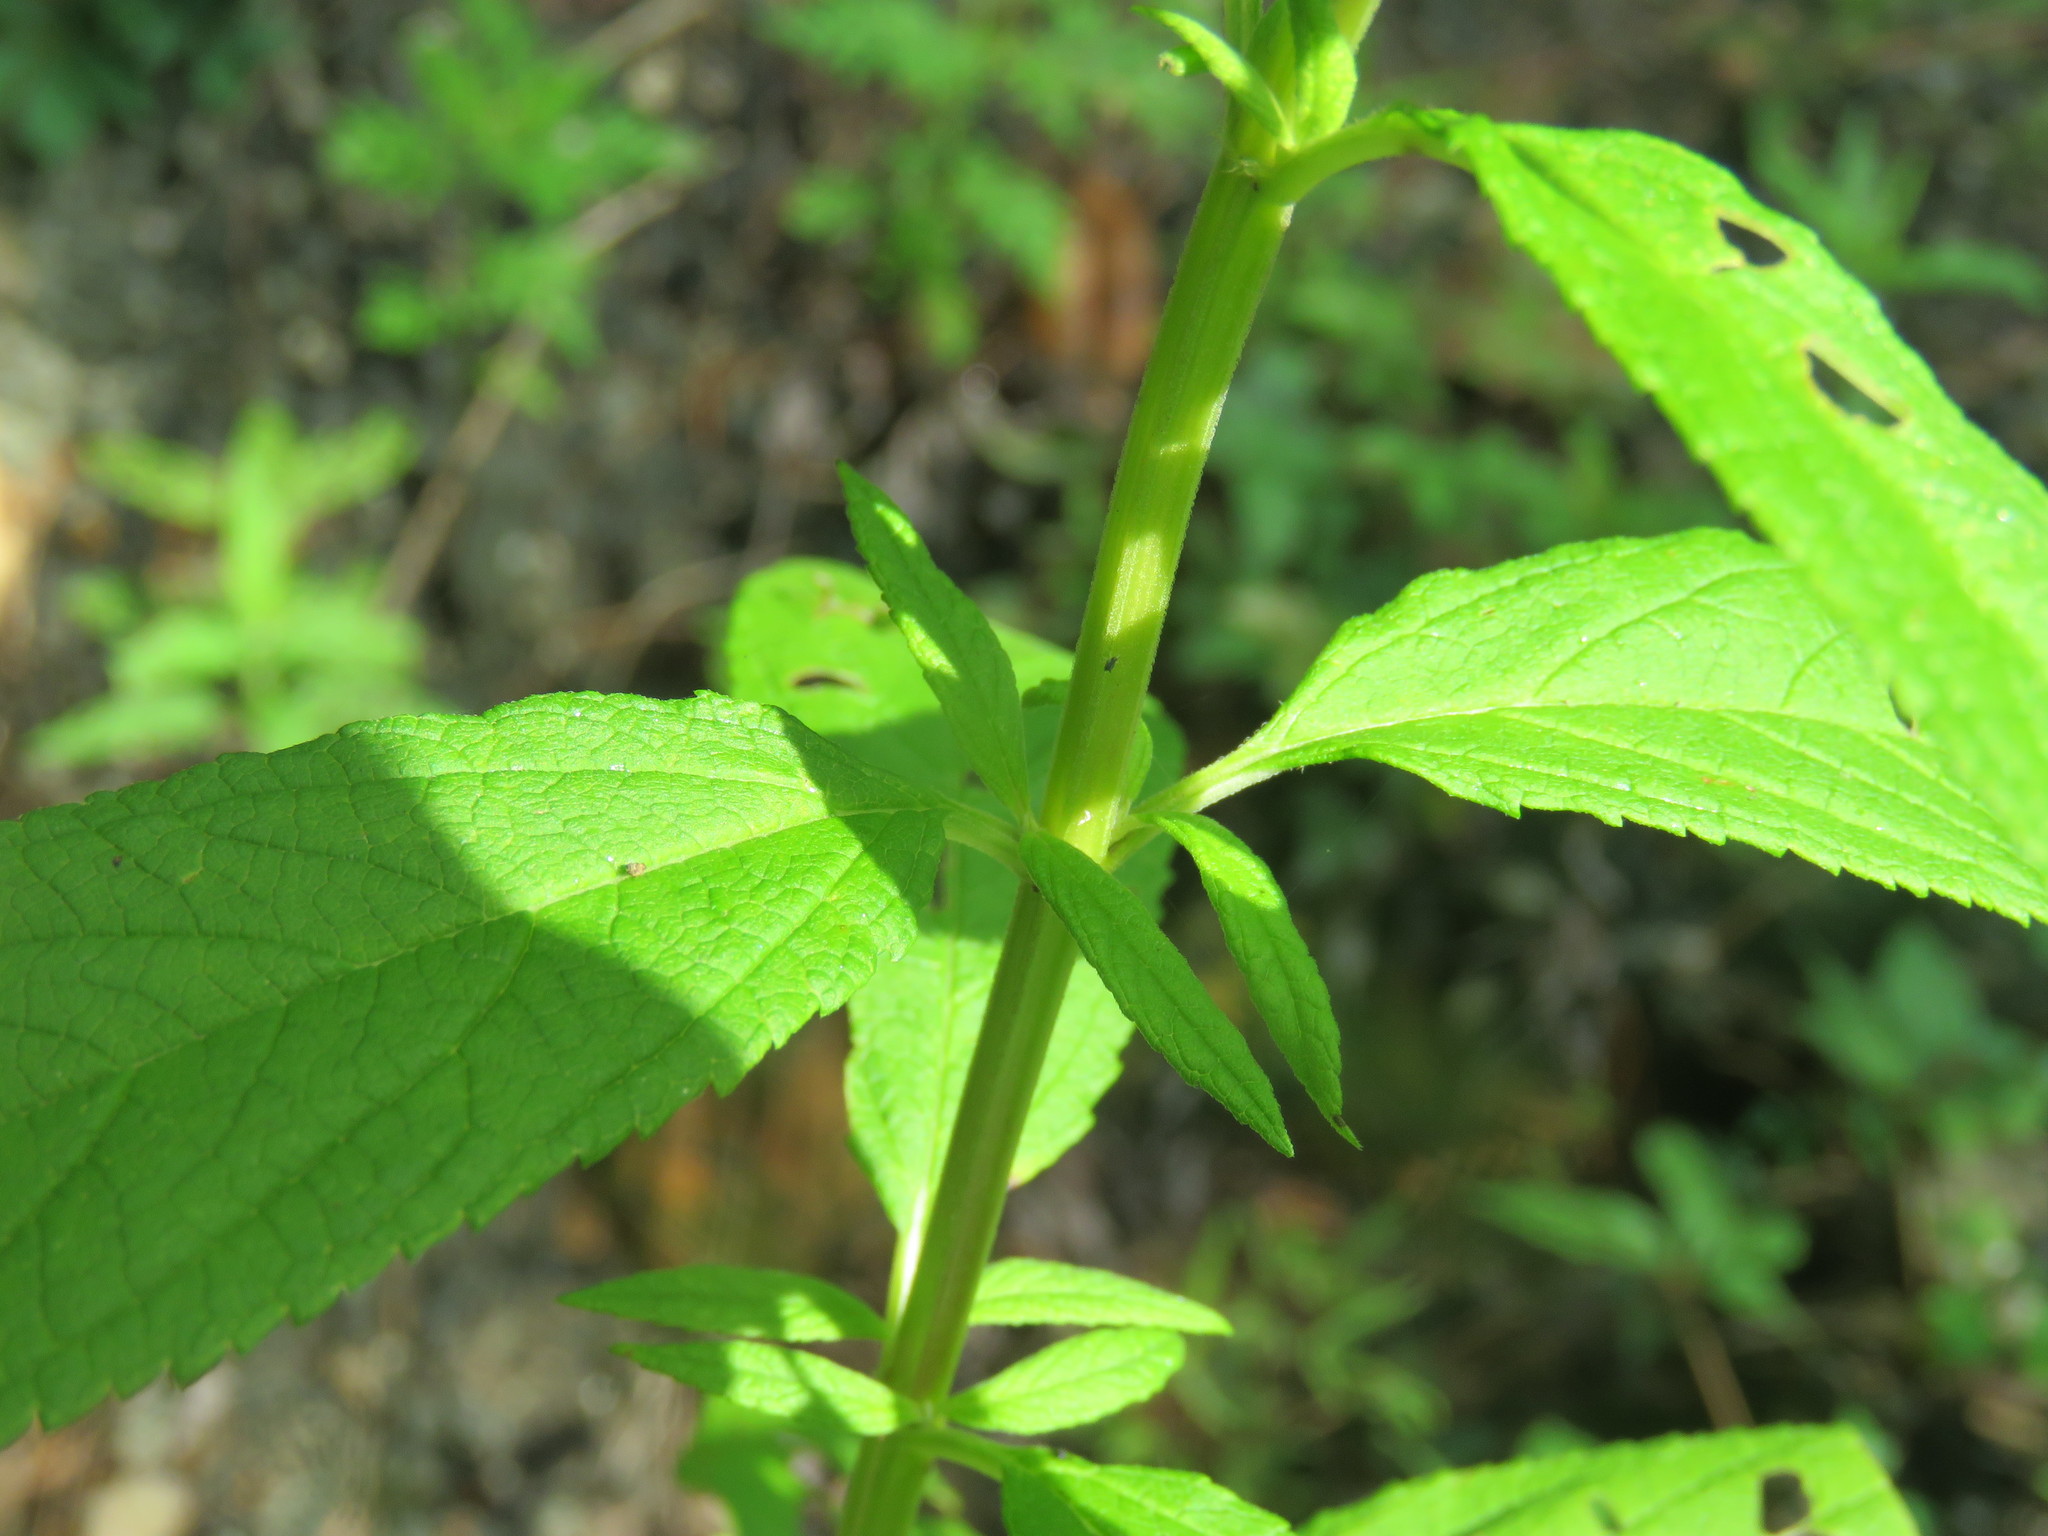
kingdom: Plantae
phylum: Tracheophyta
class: Magnoliopsida
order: Lamiales
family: Lamiaceae
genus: Teucrium
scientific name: Teucrium canadense
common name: American germander
